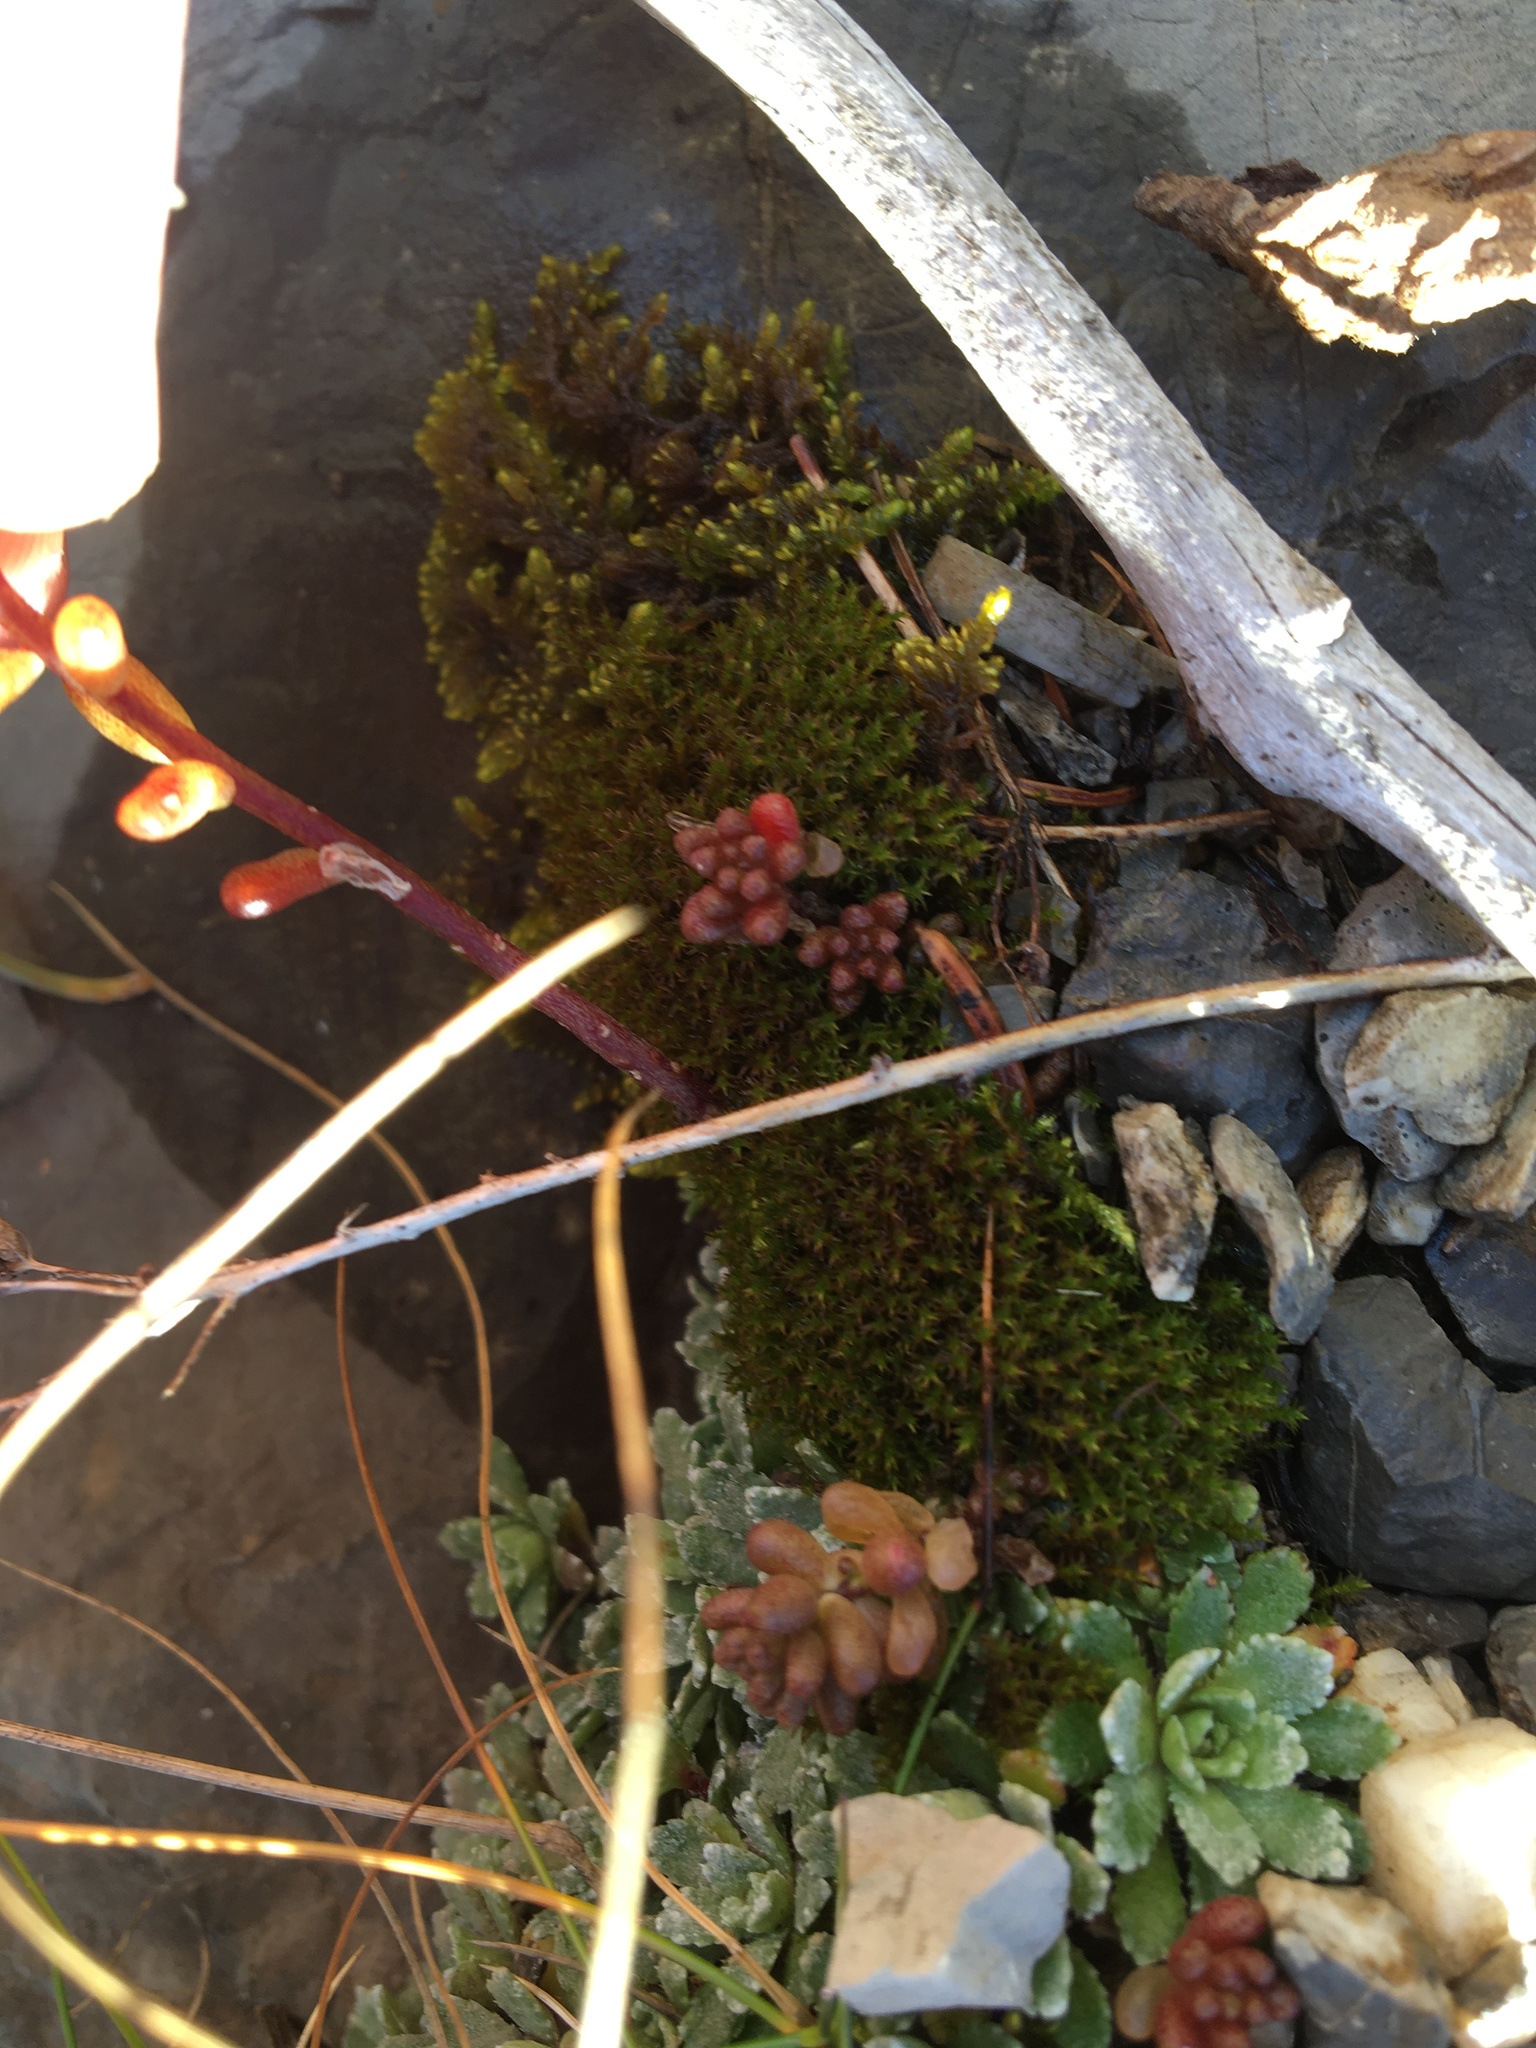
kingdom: Plantae
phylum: Tracheophyta
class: Magnoliopsida
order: Saxifragales
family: Crassulaceae
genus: Sedum
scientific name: Sedum album
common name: White stonecrop
